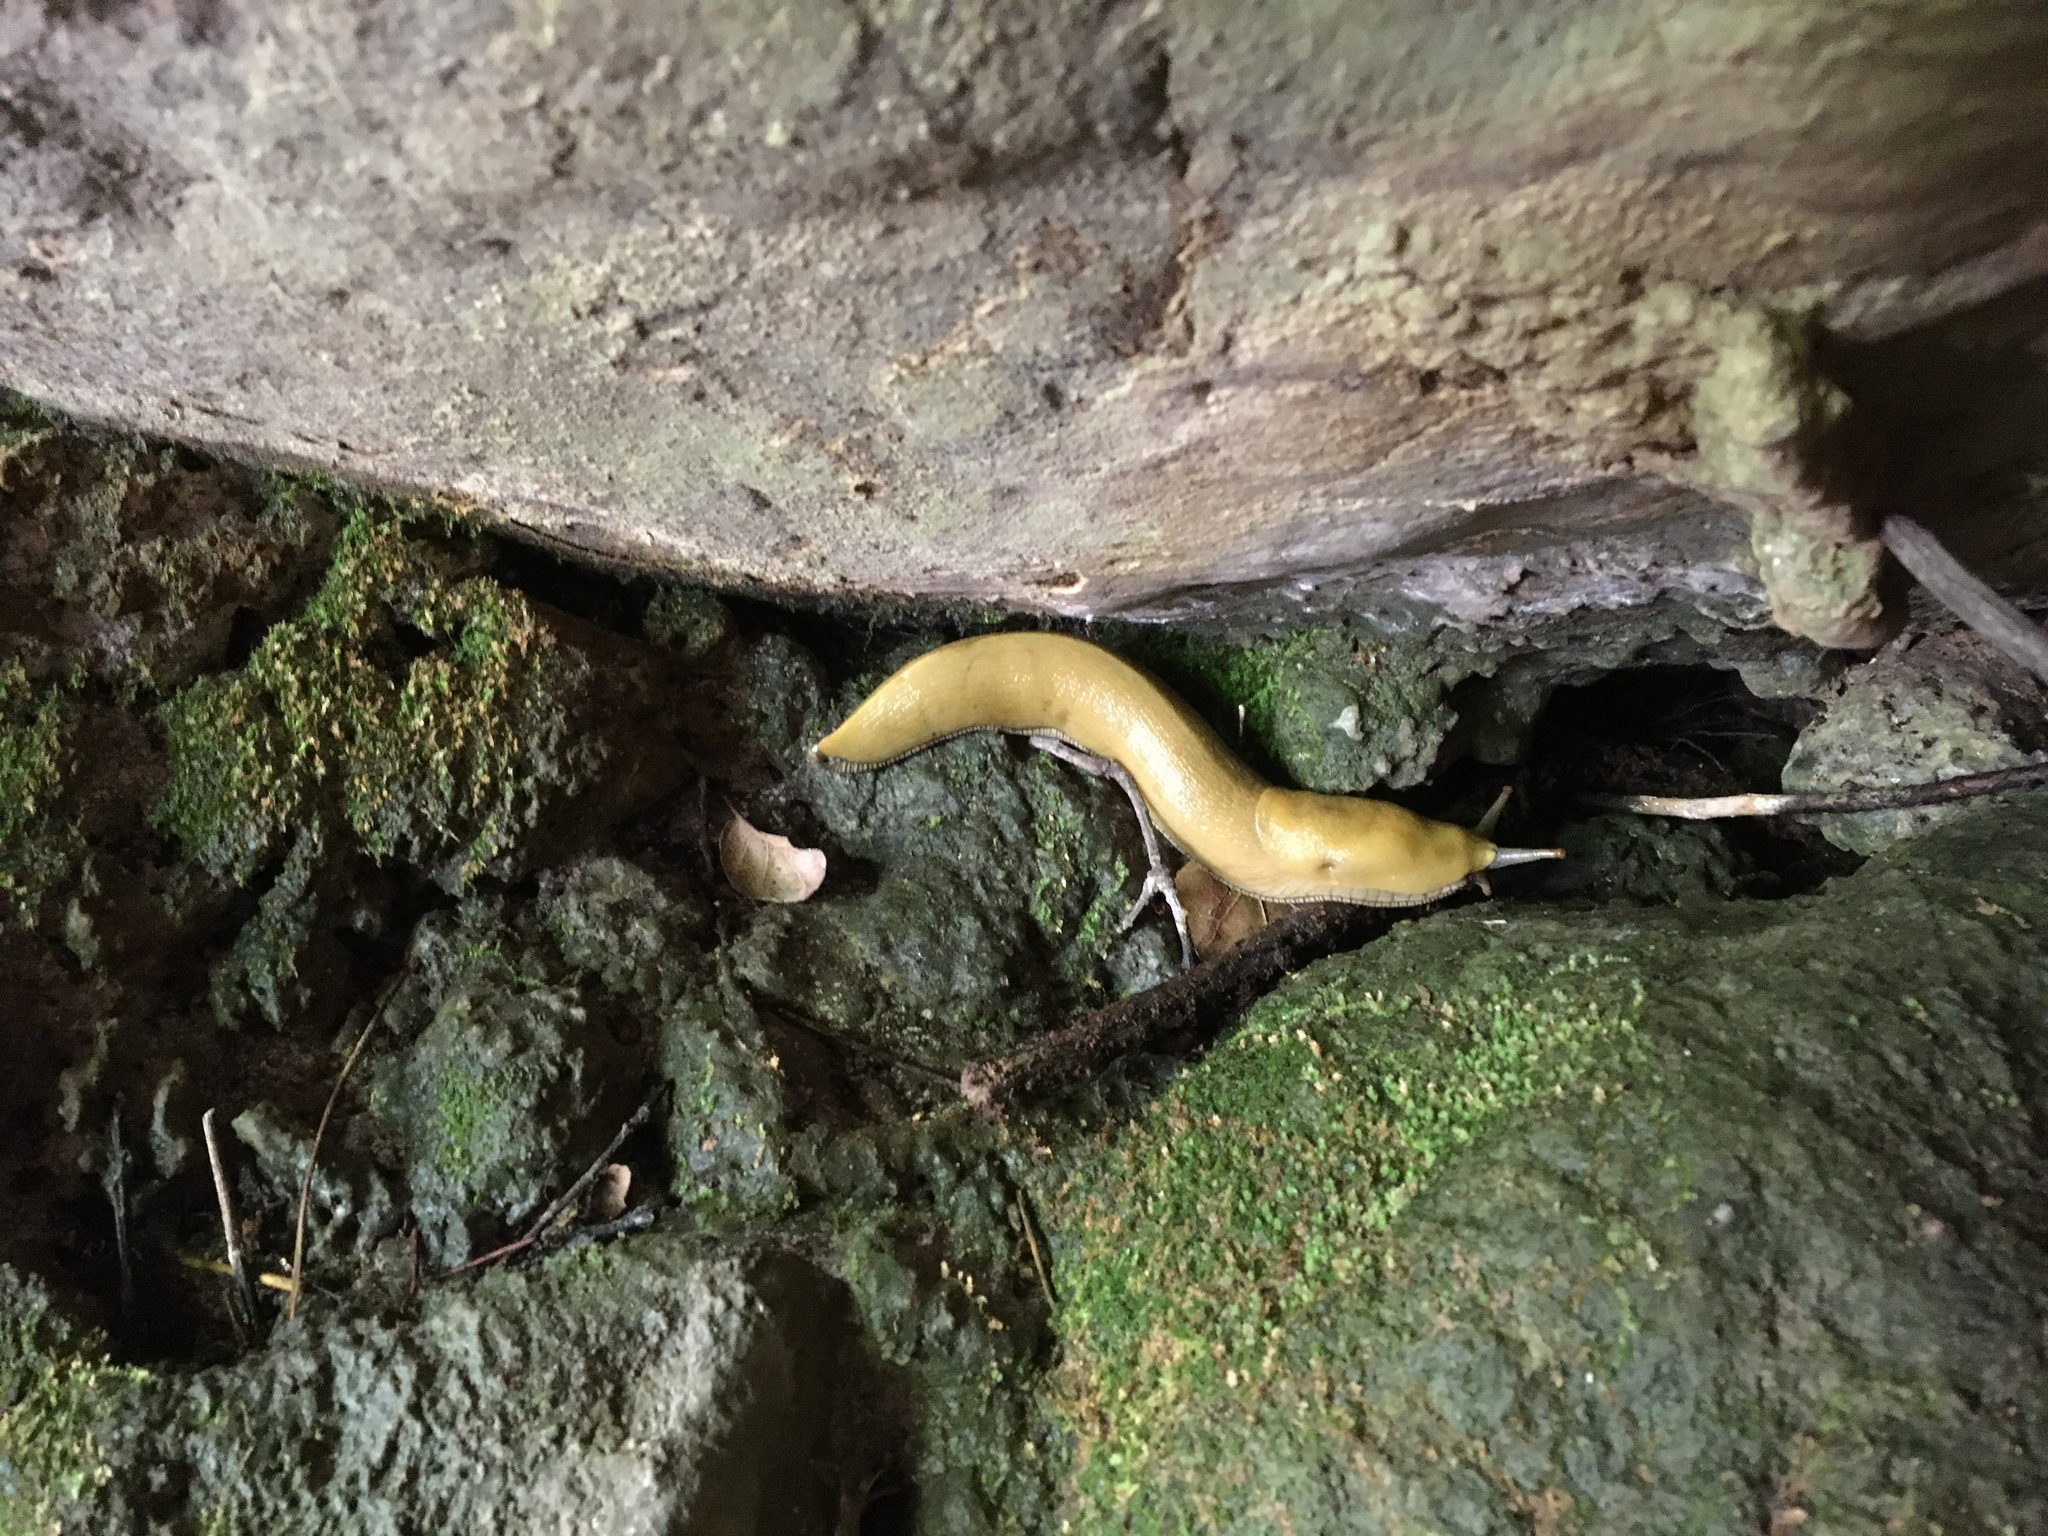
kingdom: Animalia
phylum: Mollusca
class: Gastropoda
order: Stylommatophora
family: Ariolimacidae
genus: Ariolimax
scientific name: Ariolimax stramineus
